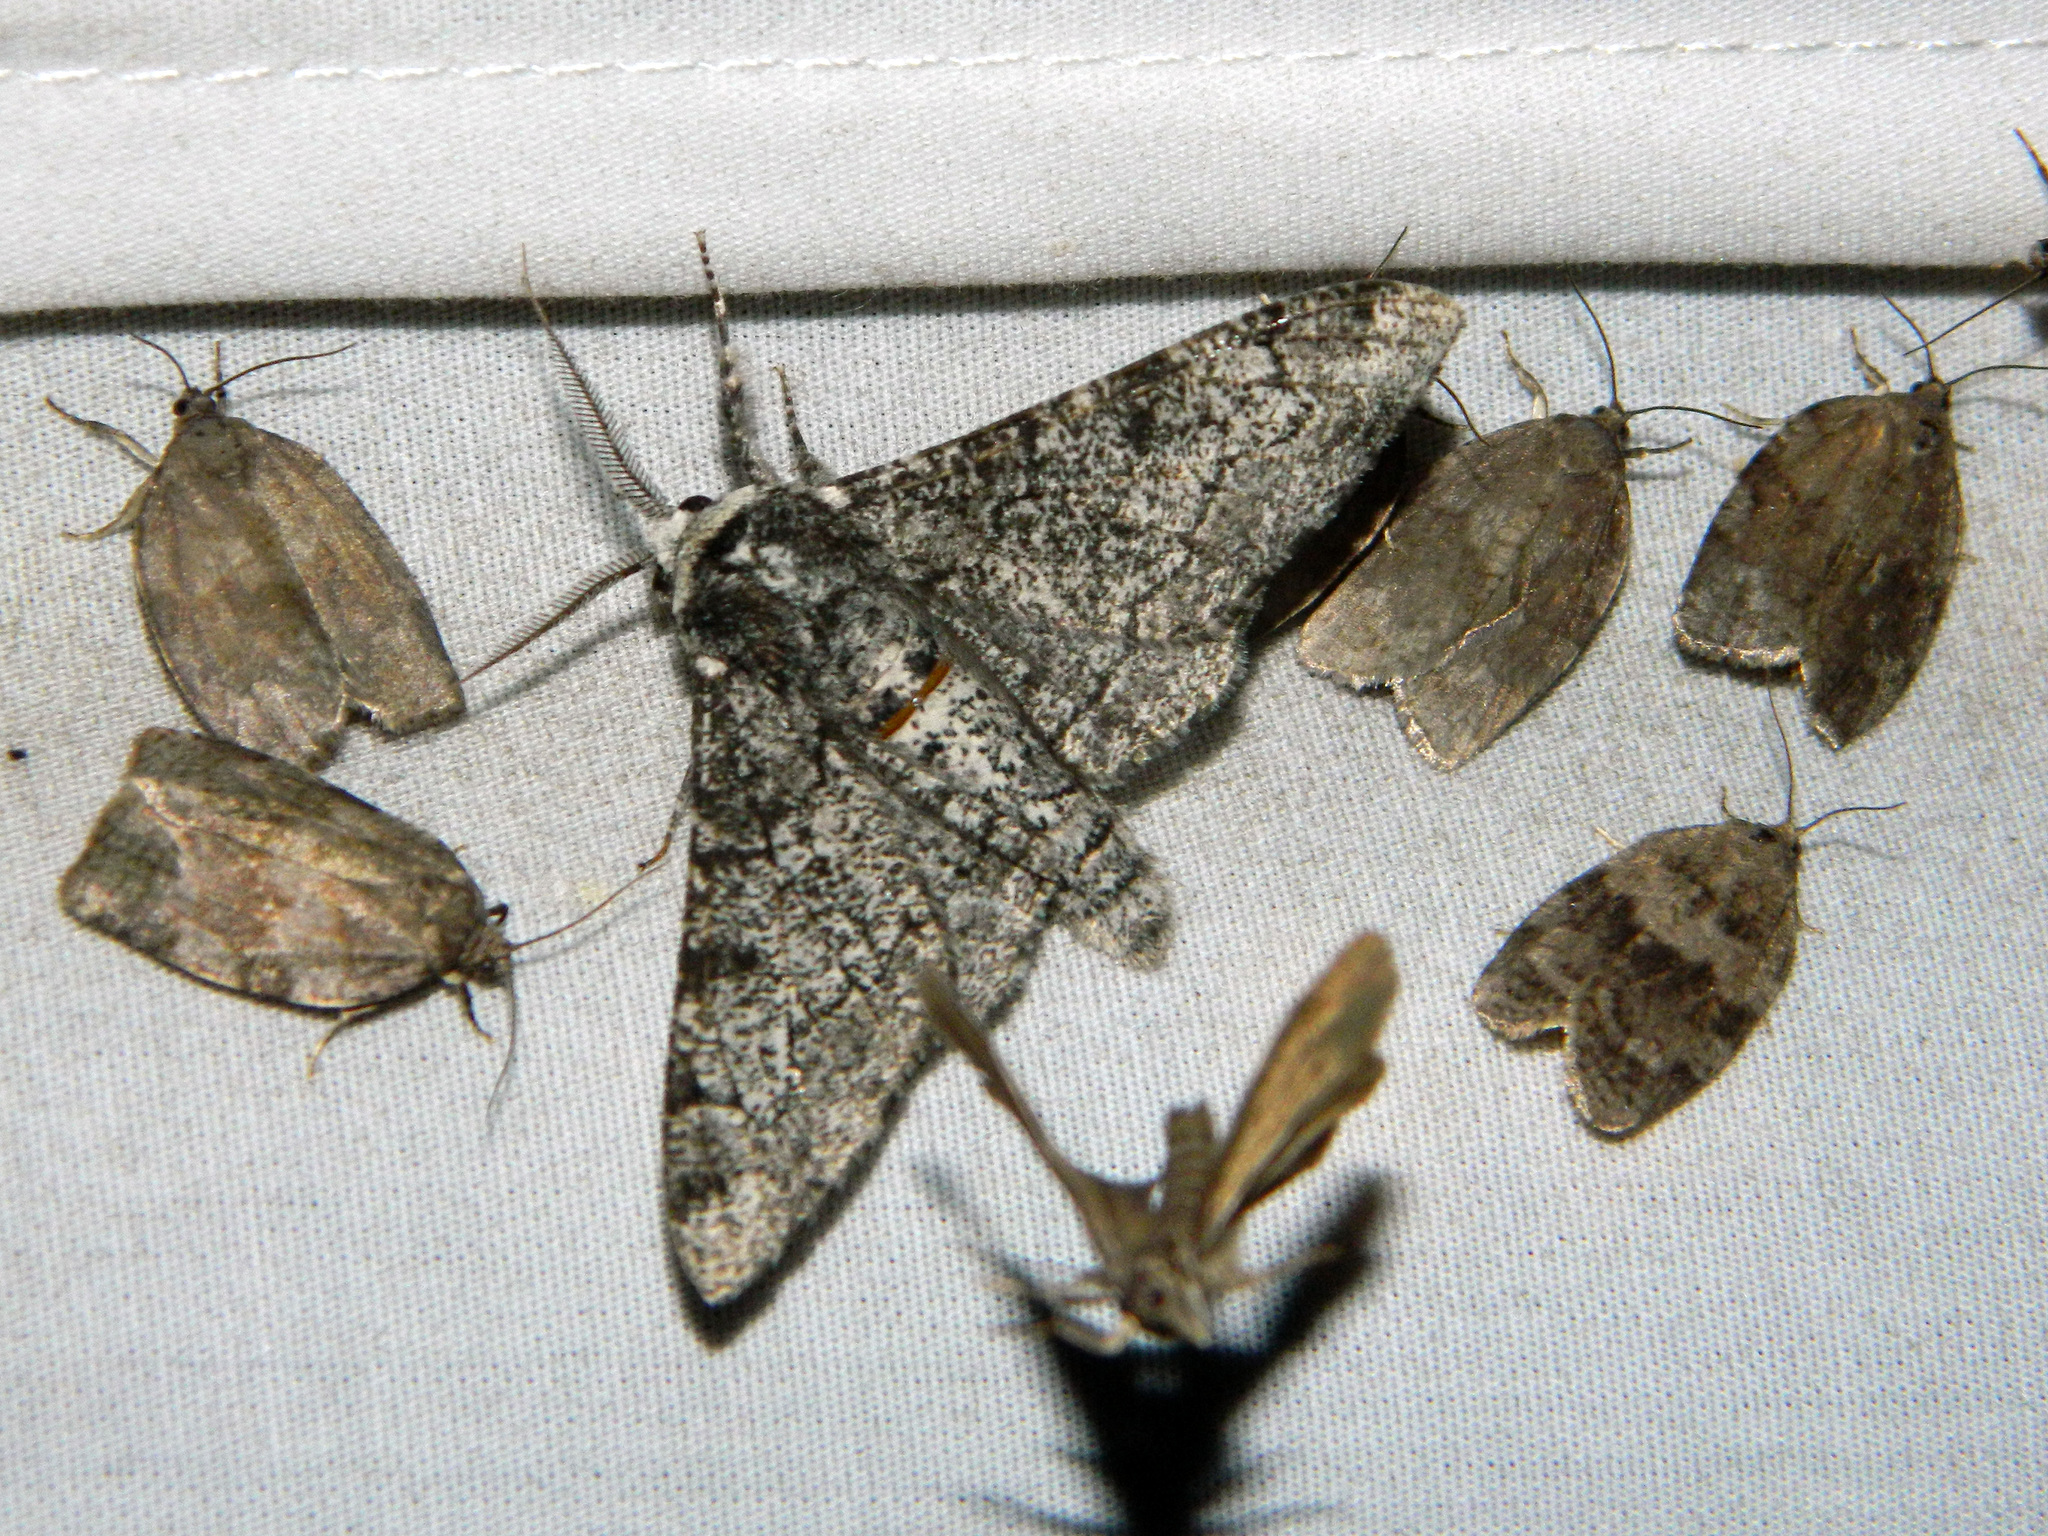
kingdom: Animalia
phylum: Arthropoda
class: Insecta
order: Lepidoptera
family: Geometridae
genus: Biston
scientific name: Biston betularia
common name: Peppered moth
